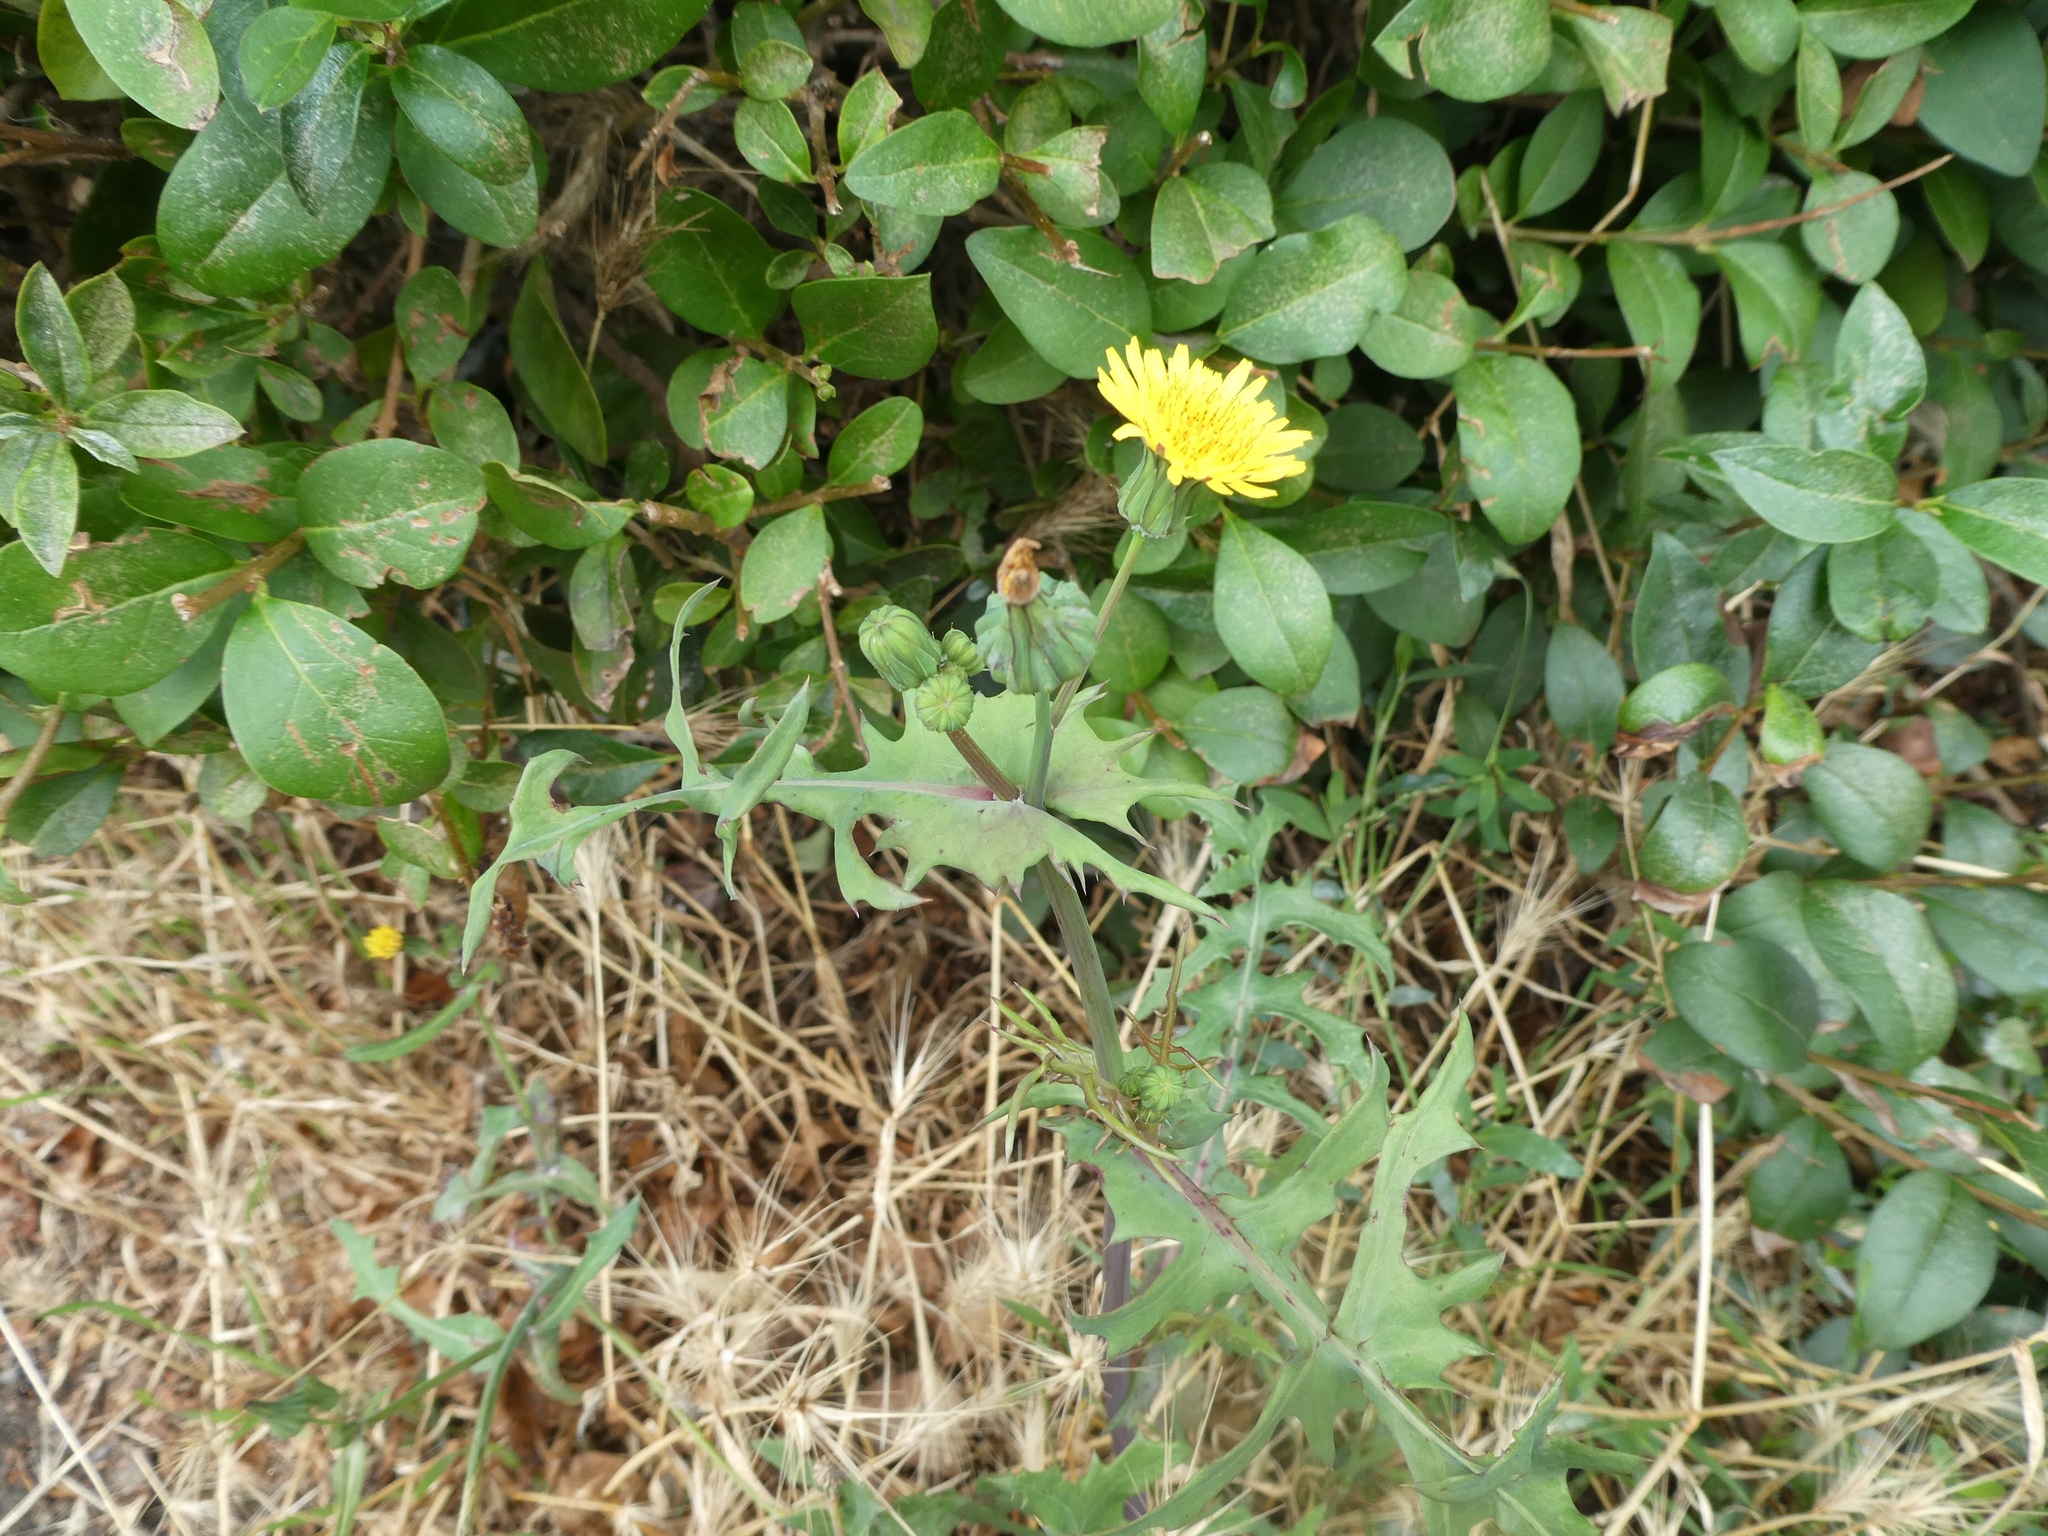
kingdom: Plantae
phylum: Tracheophyta
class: Magnoliopsida
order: Asterales
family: Asteraceae
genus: Sonchus
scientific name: Sonchus oleraceus
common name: Common sowthistle
